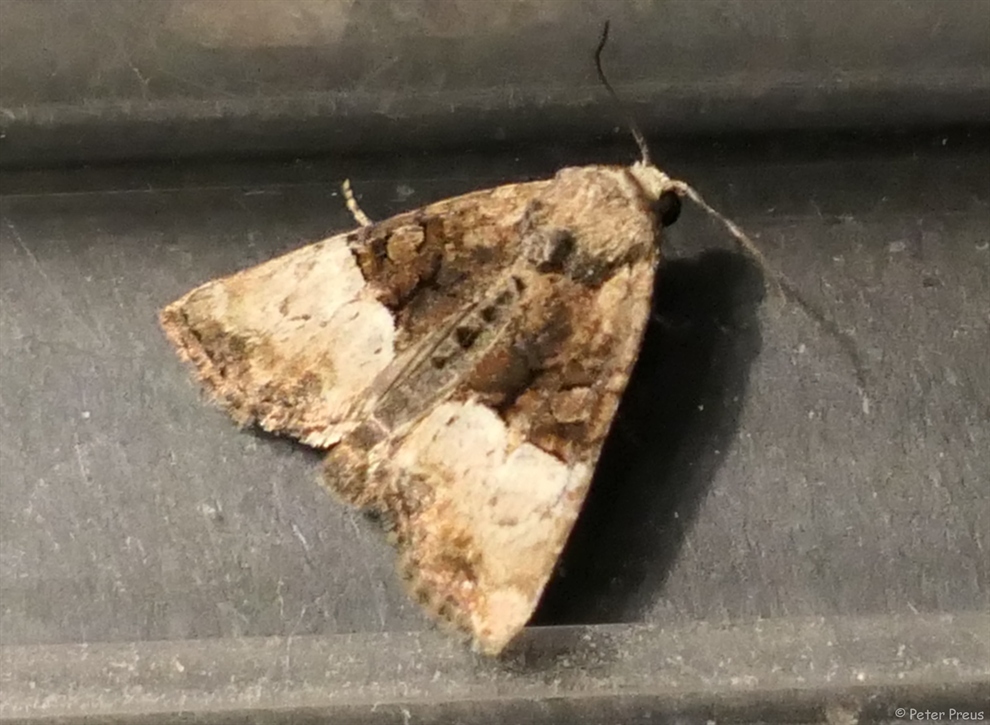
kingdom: Animalia
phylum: Arthropoda
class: Insecta
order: Lepidoptera
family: Noctuidae
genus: Mesoligia
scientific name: Mesoligia furuncula
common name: Cloaked minor
